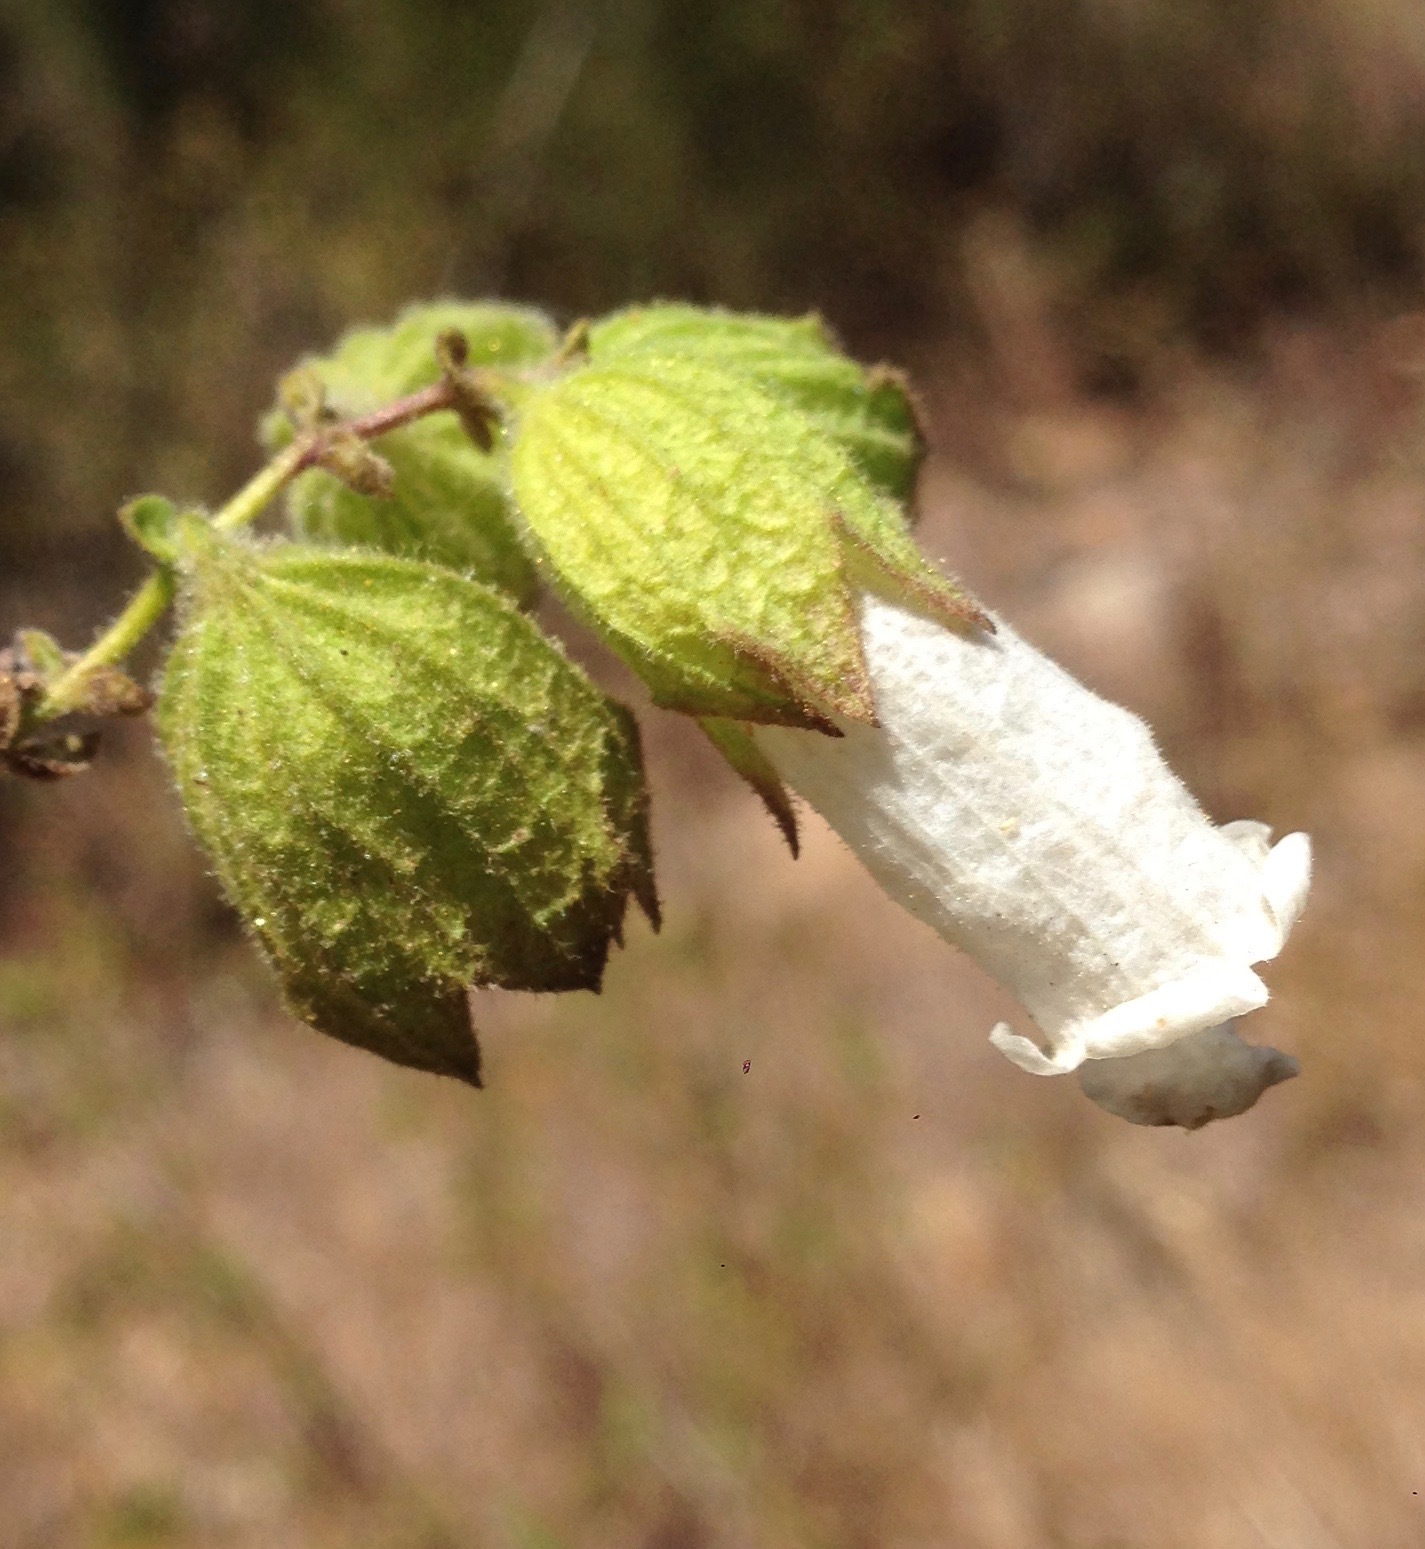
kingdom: Plantae
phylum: Tracheophyta
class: Magnoliopsida
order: Lamiales
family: Lamiaceae
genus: Lepechinia
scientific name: Lepechinia calycina
